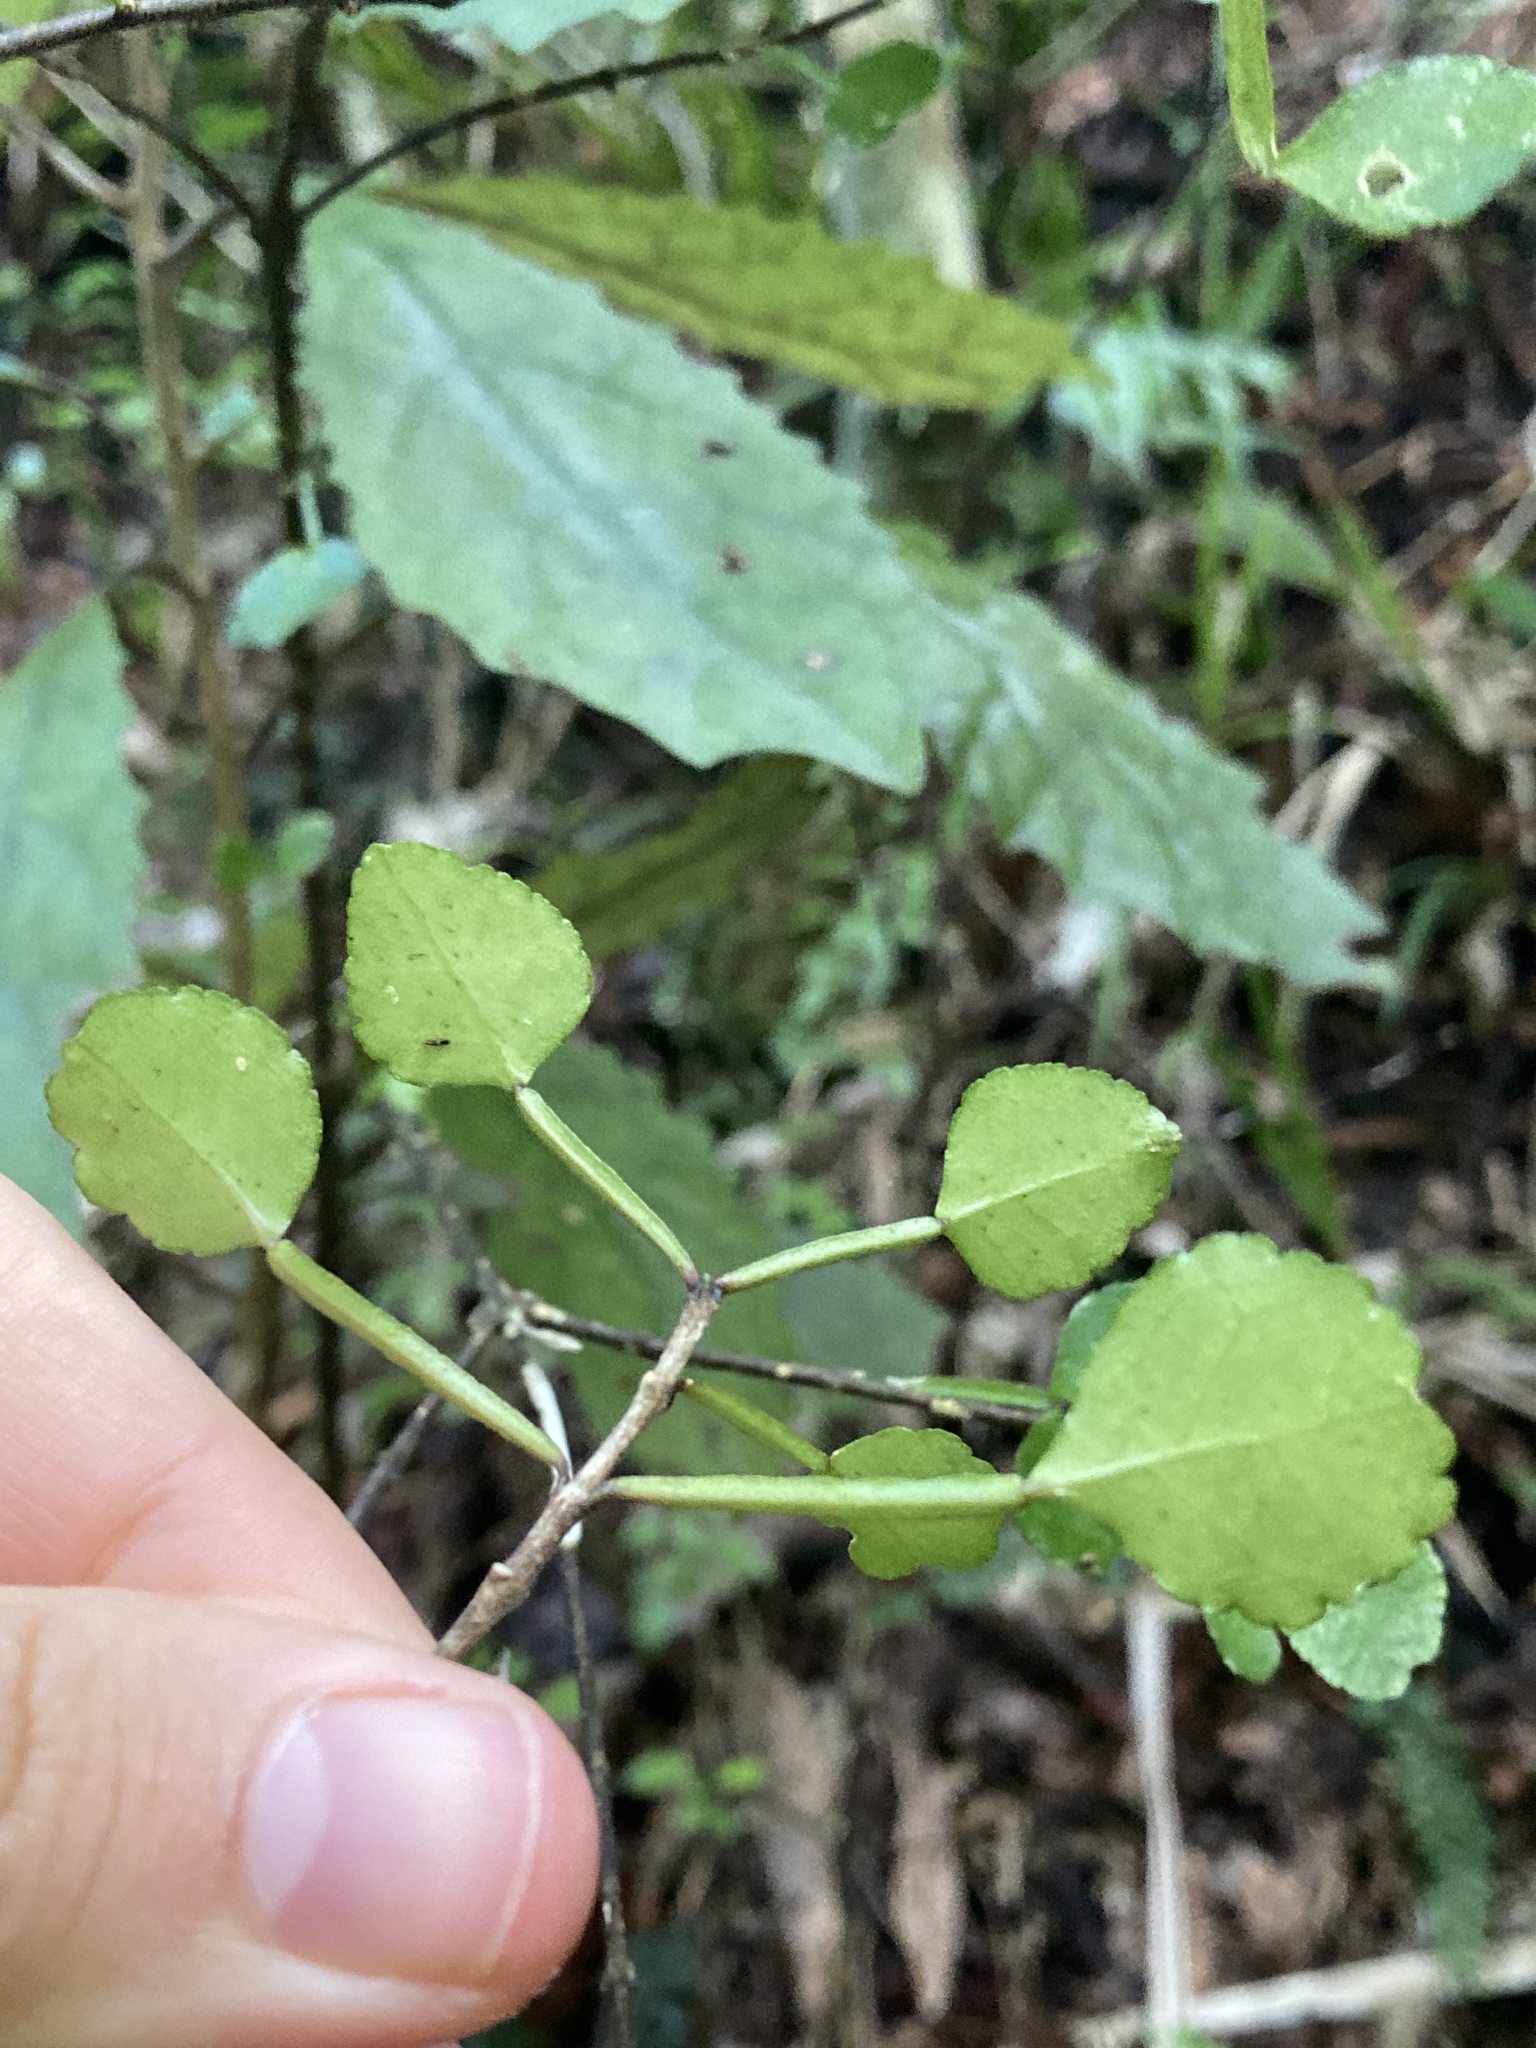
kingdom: Plantae
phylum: Tracheophyta
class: Magnoliopsida
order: Sapindales
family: Rutaceae
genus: Melicope
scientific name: Melicope simplex
